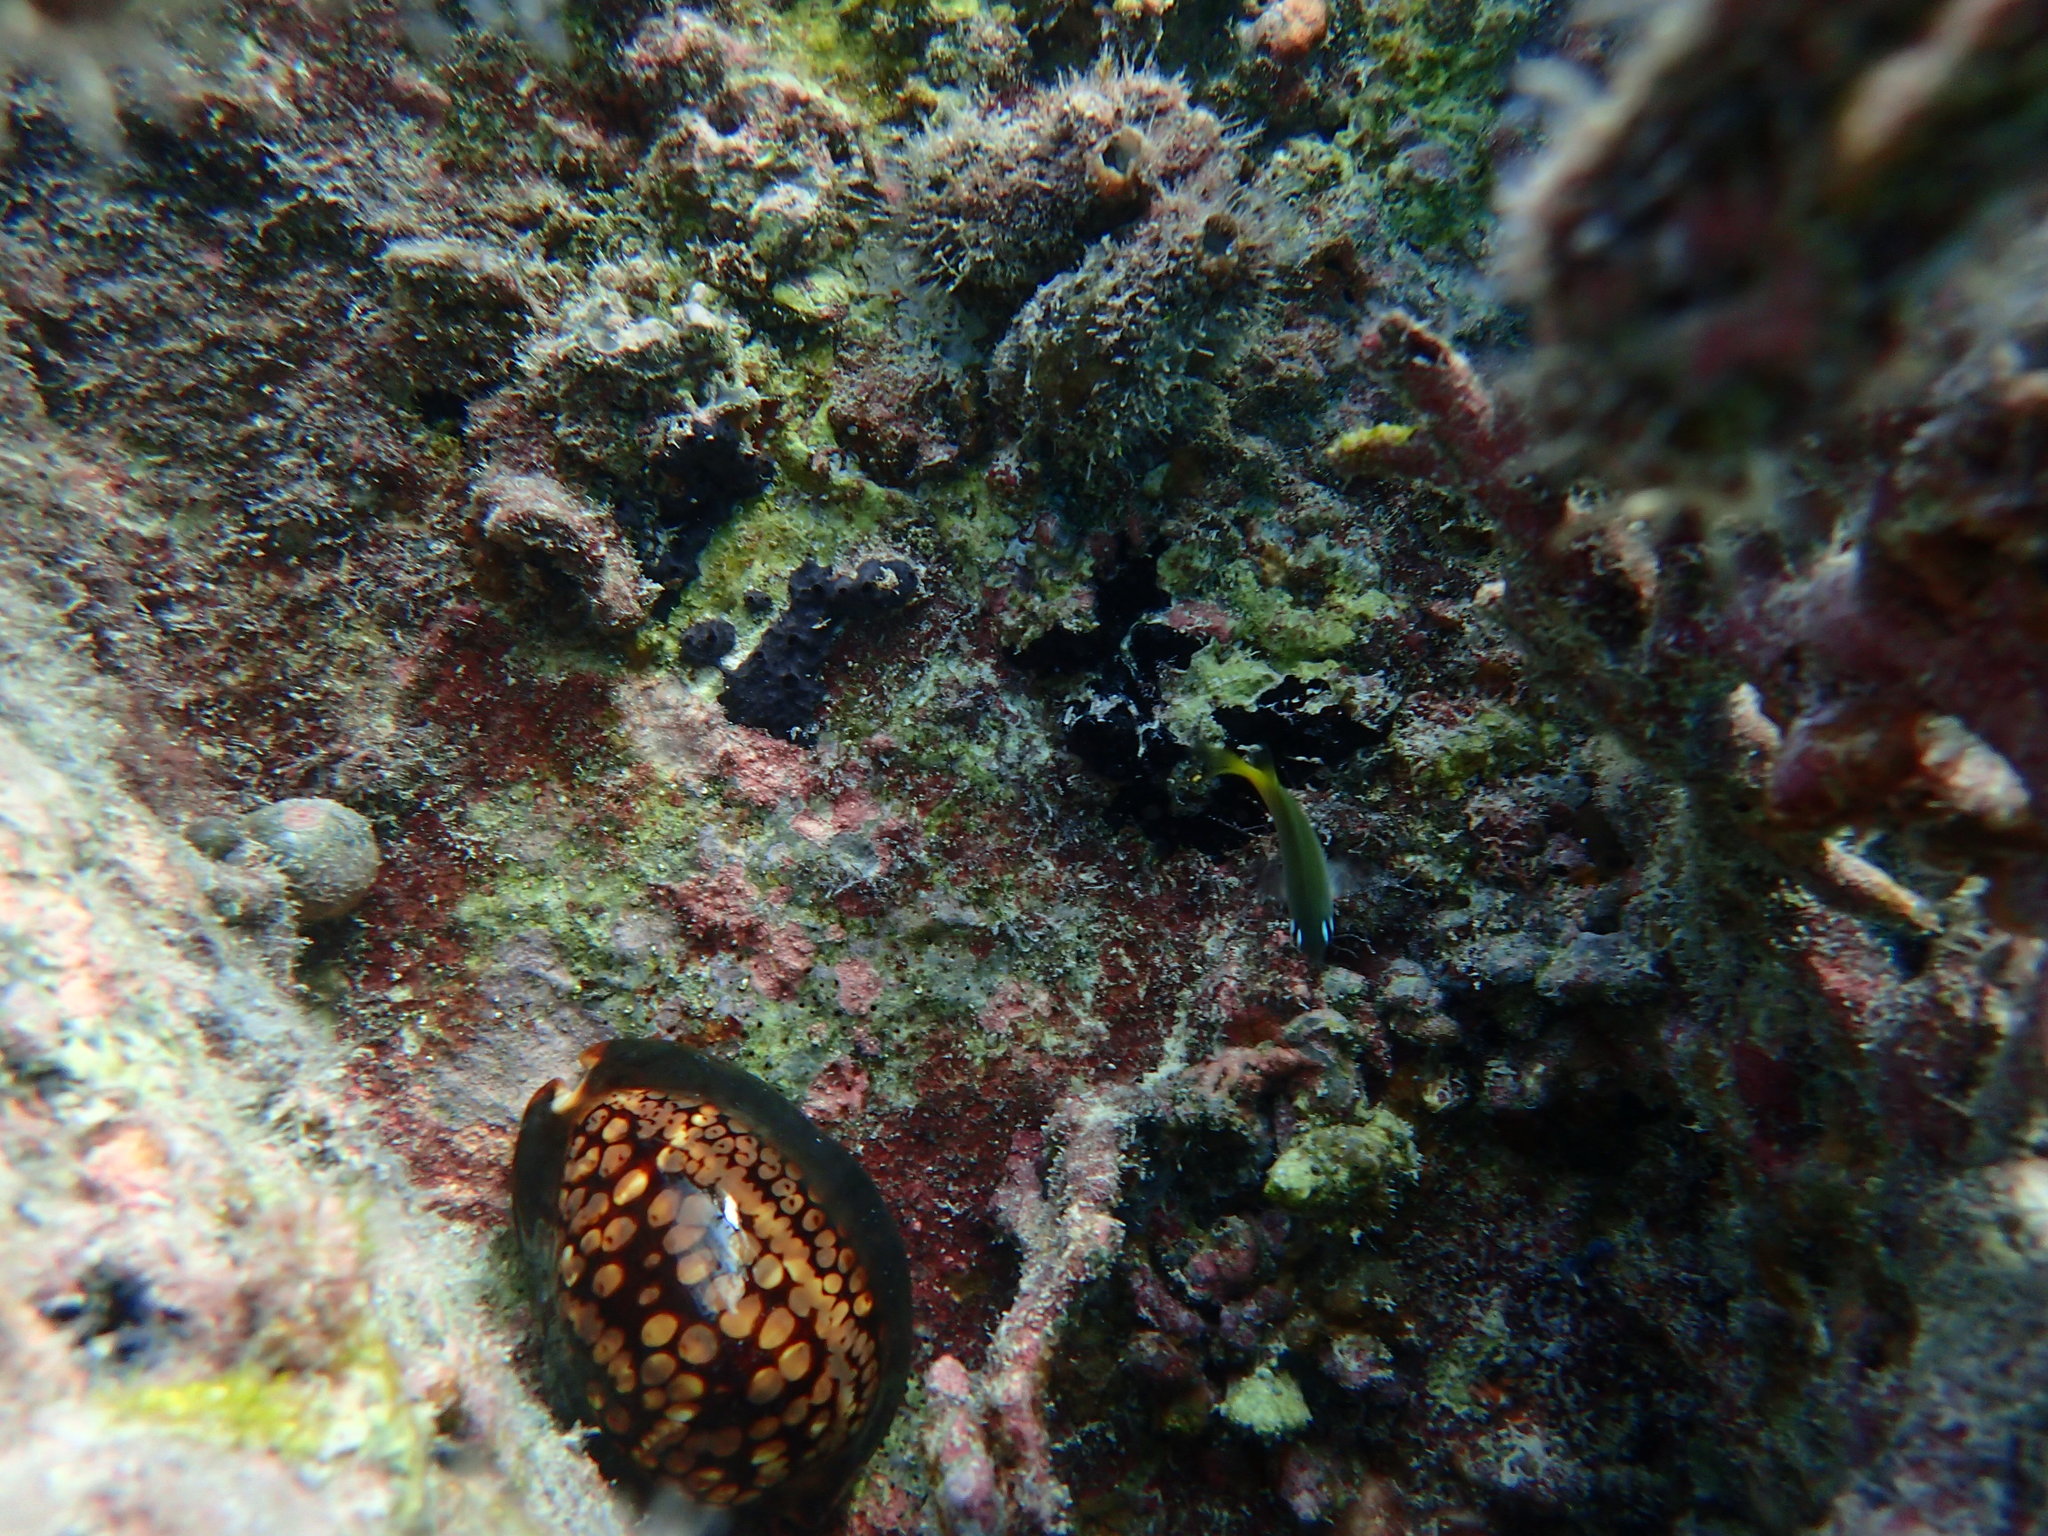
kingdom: Animalia
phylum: Mollusca
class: Gastropoda
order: Littorinimorpha
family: Cypraeidae
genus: Mauritia
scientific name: Mauritia mauritiana
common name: Hump-backed cowrie
